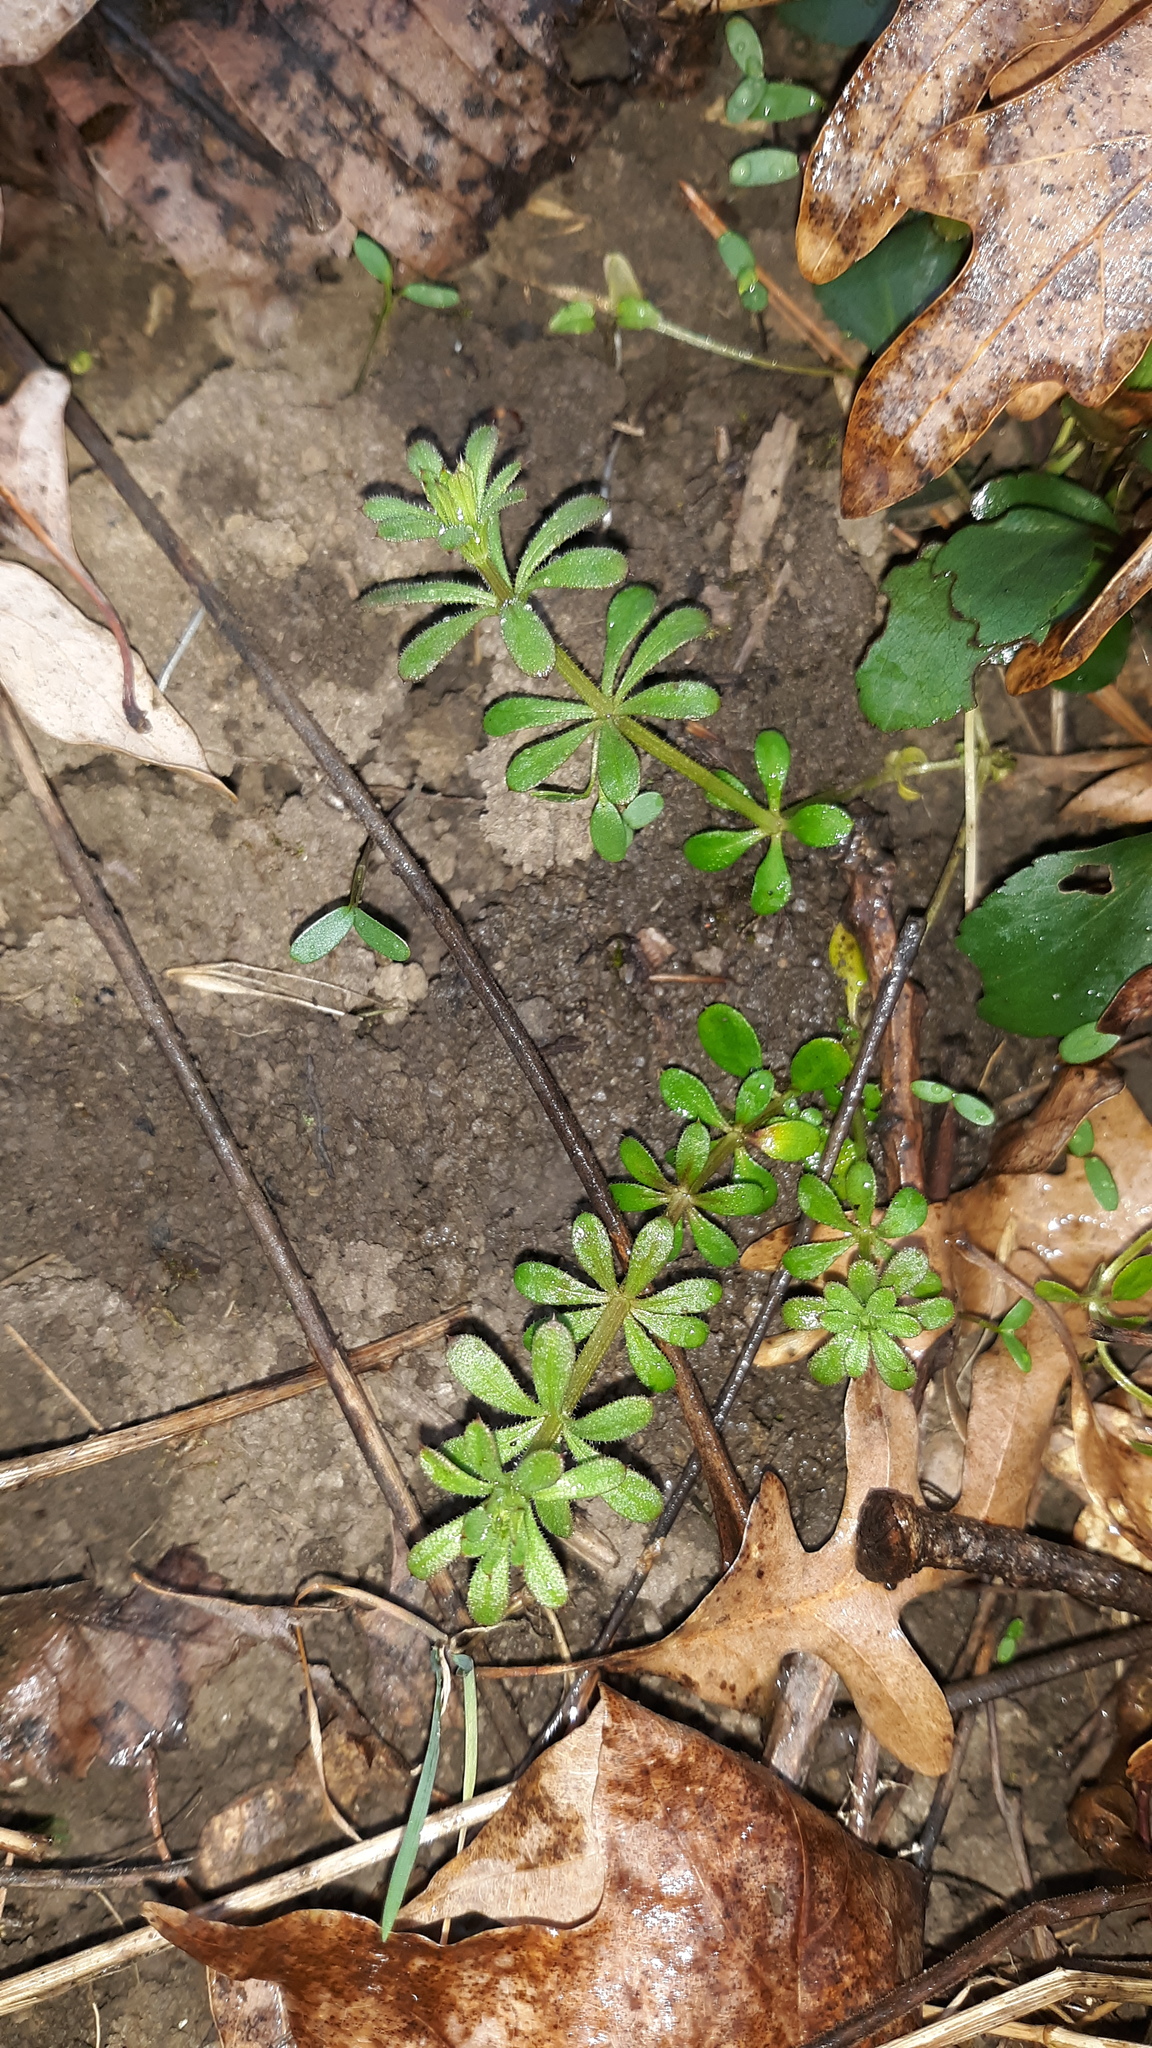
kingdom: Plantae
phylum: Tracheophyta
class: Magnoliopsida
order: Gentianales
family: Rubiaceae
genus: Galium
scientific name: Galium aparine
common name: Cleavers
